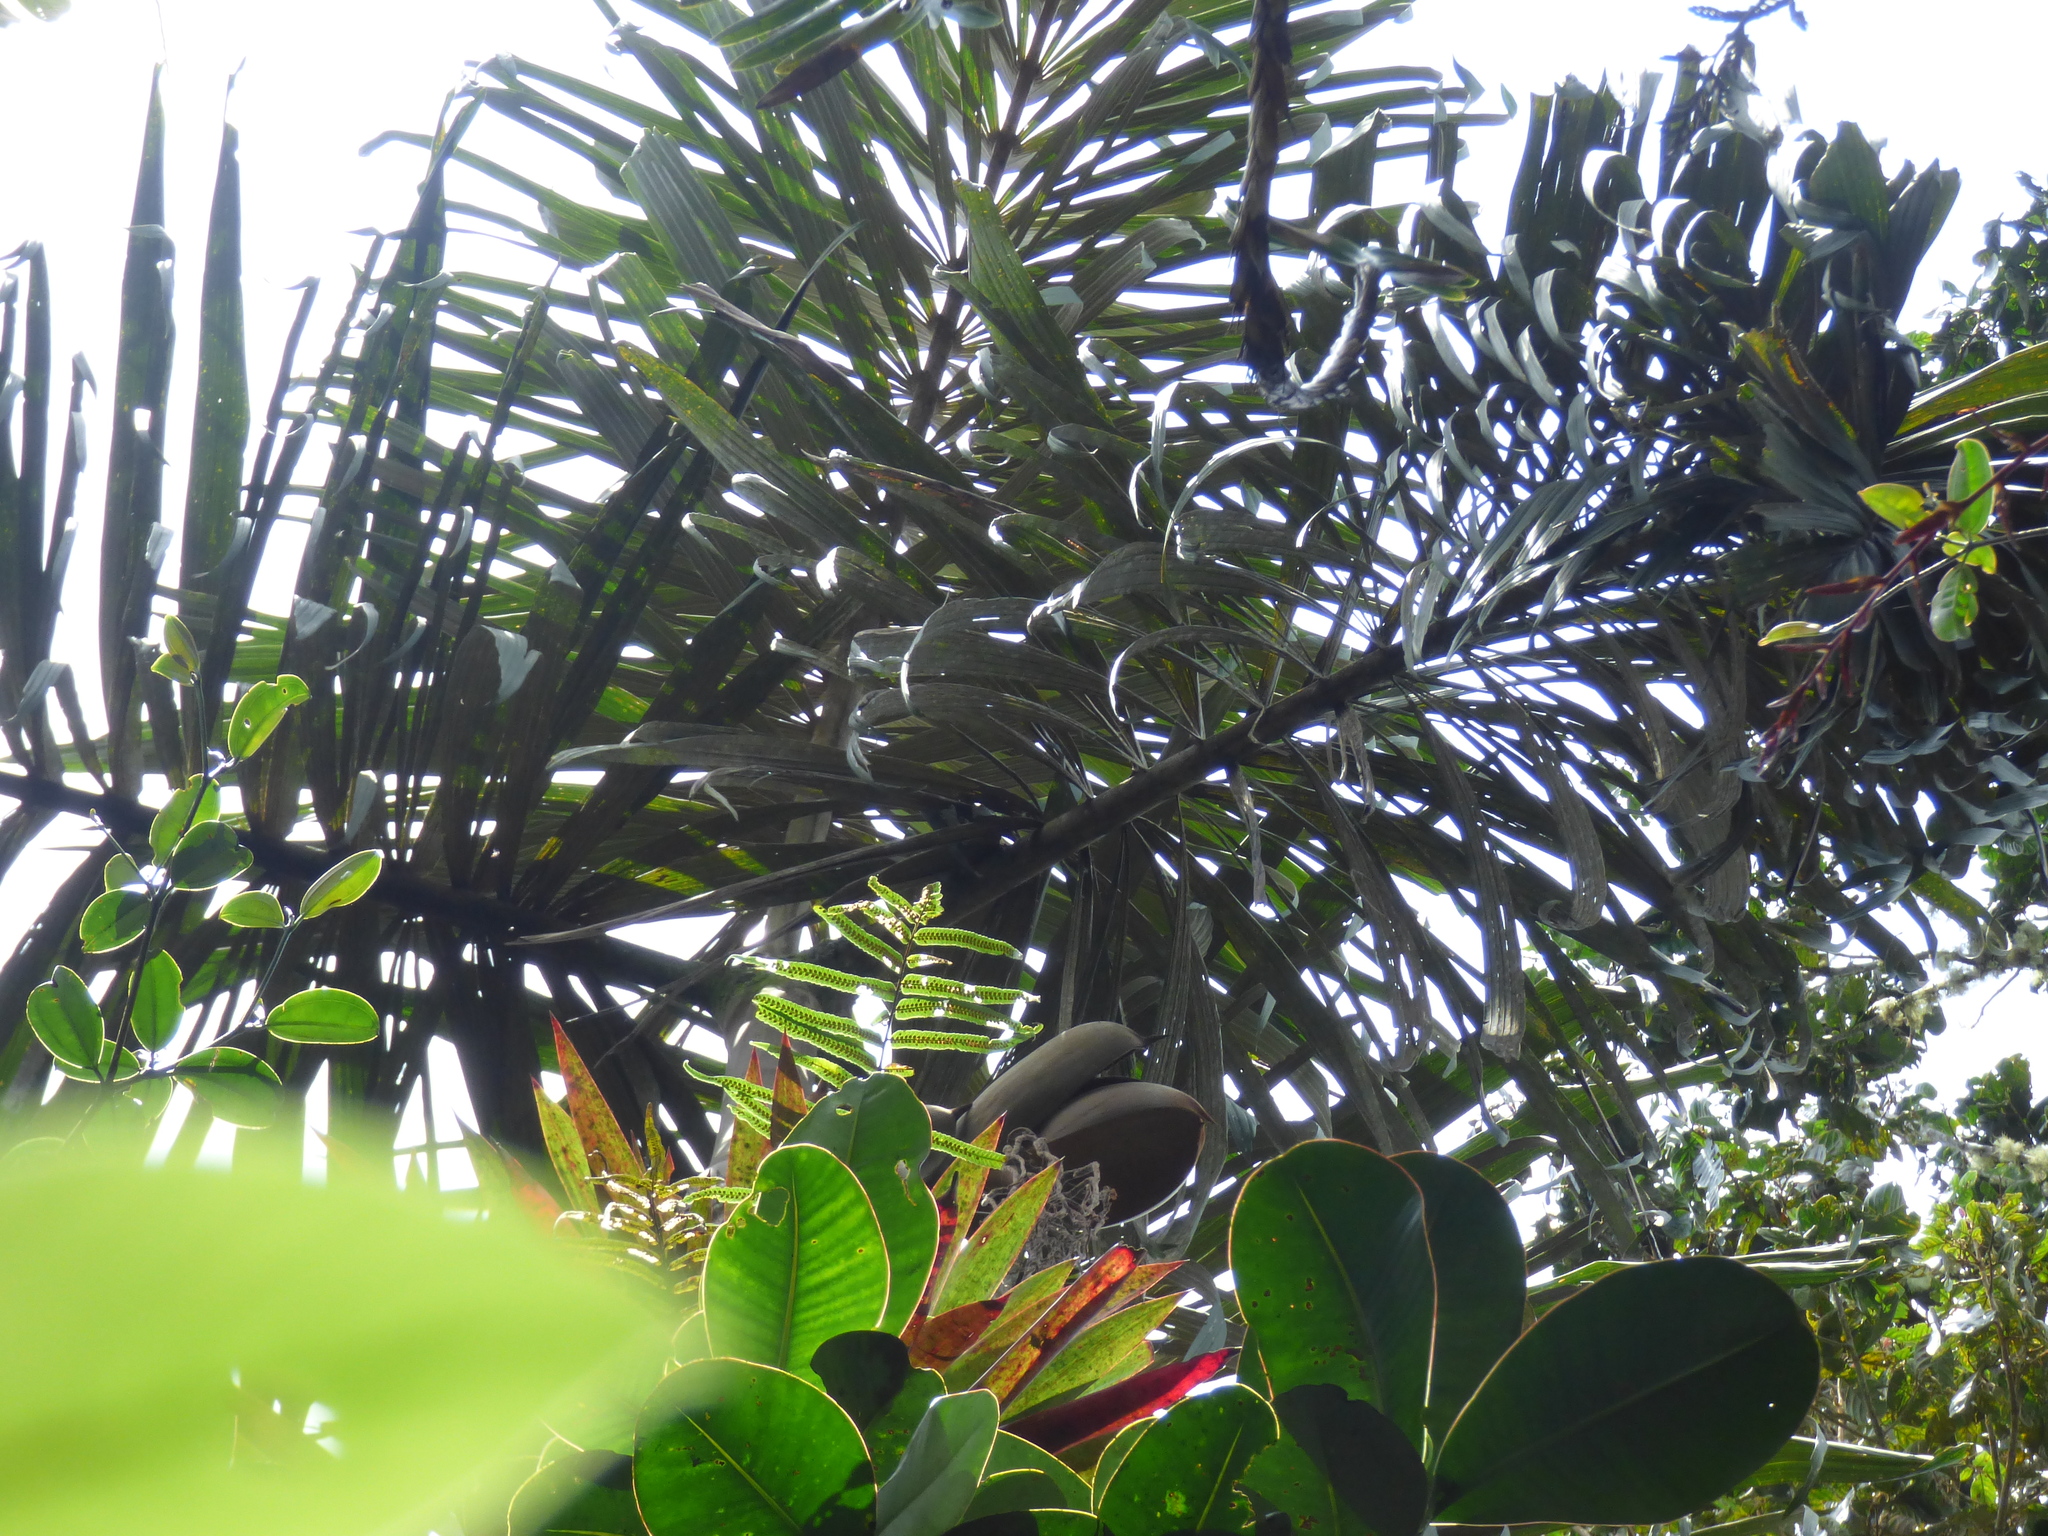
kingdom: Plantae
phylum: Tracheophyta
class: Liliopsida
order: Arecales
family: Arecaceae
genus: Wettinia
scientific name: Wettinia kalbreyeri
